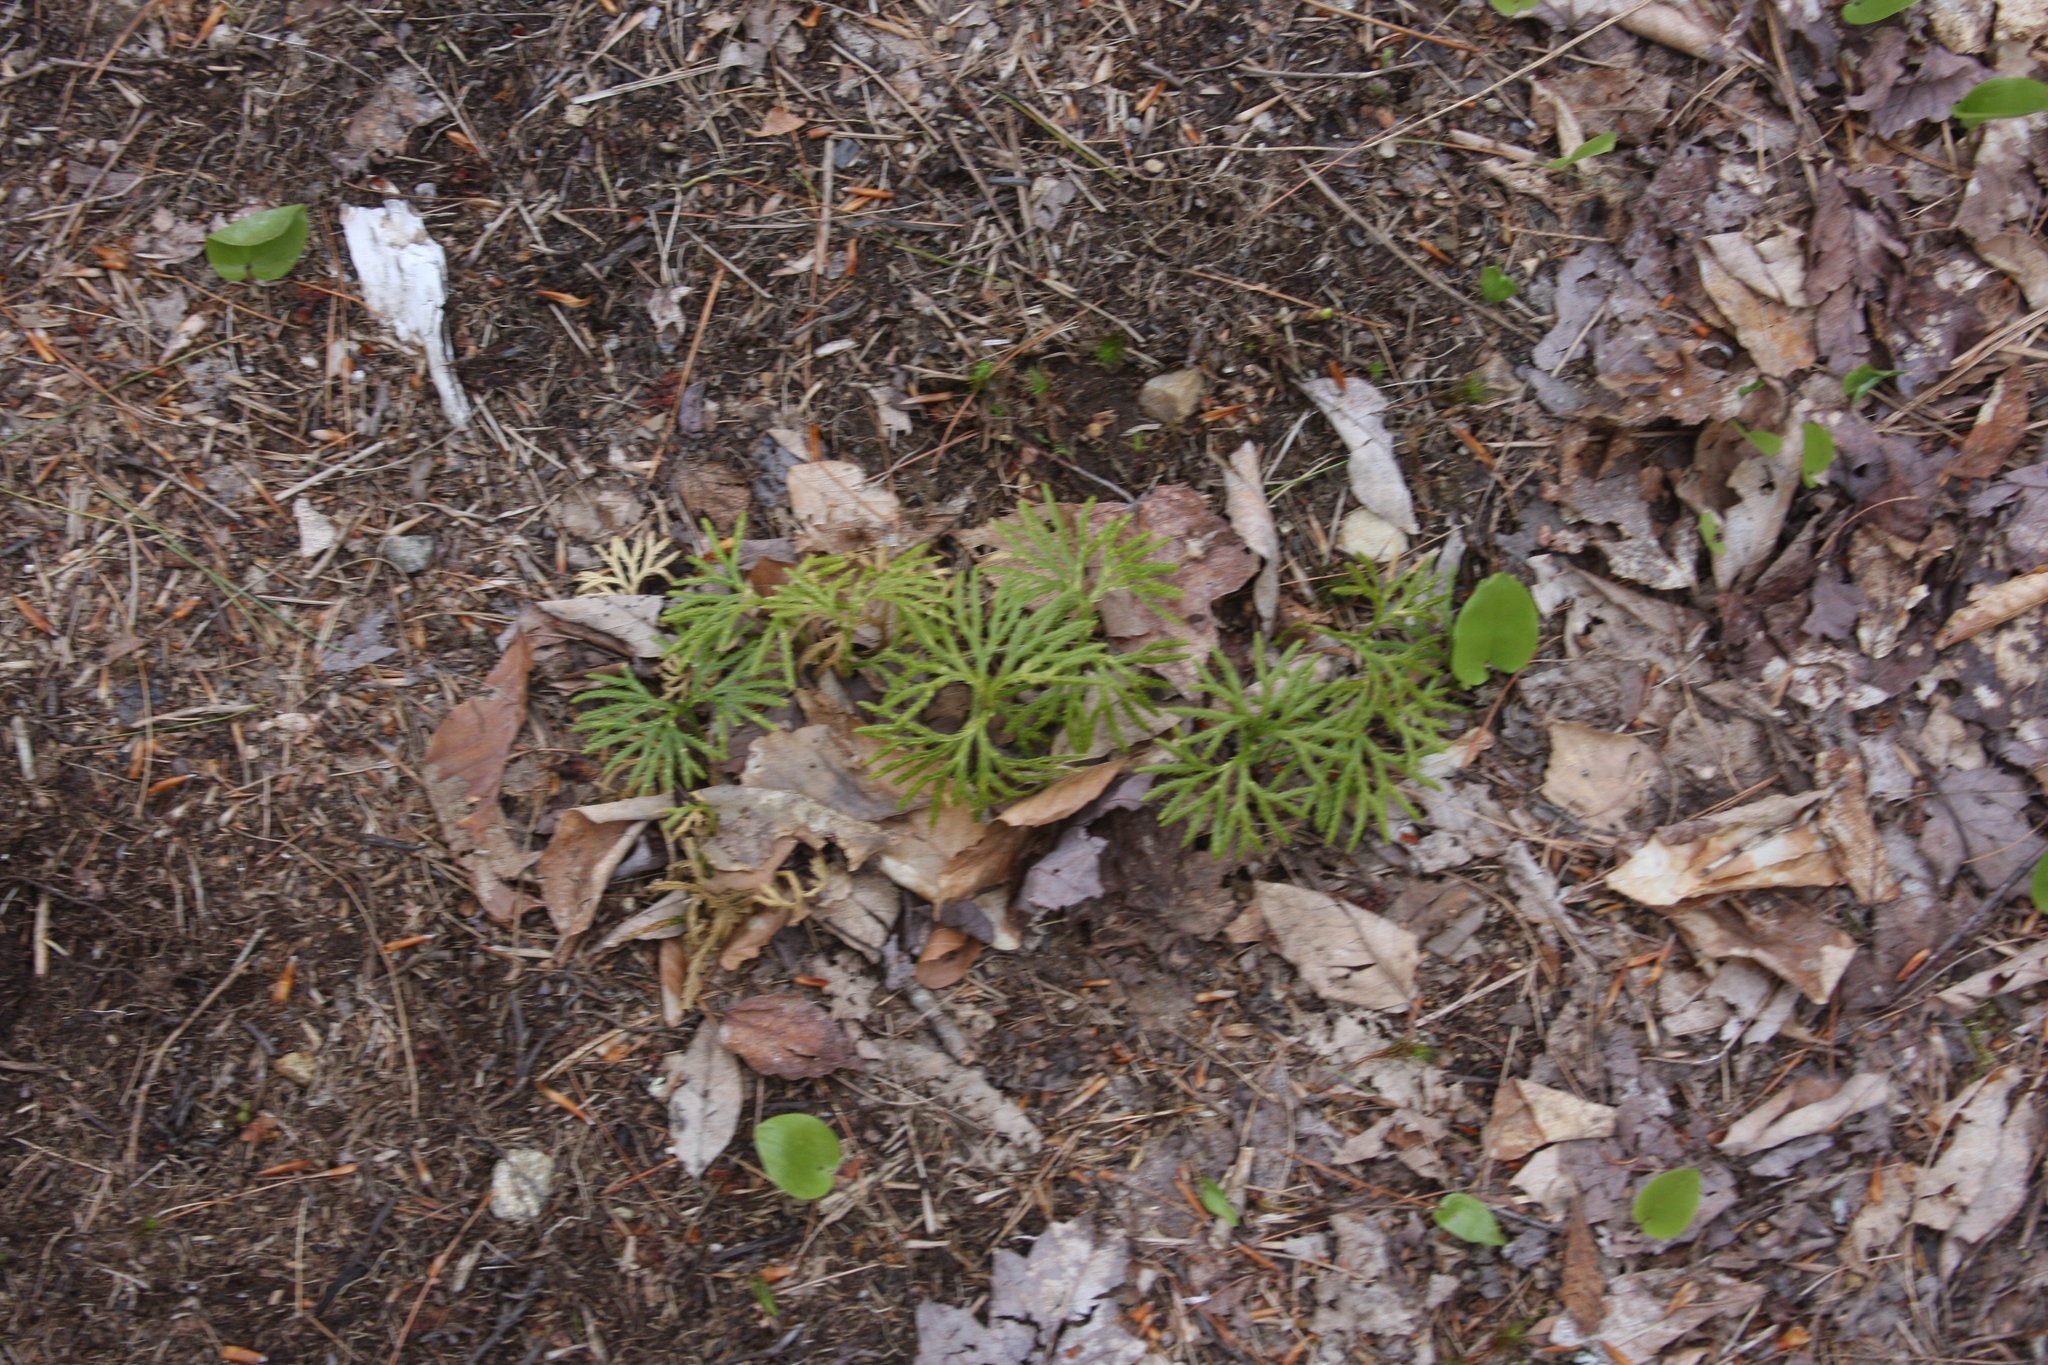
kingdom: Plantae
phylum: Tracheophyta
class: Liliopsida
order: Asparagales
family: Asparagaceae
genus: Maianthemum
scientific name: Maianthemum canadense
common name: False lily-of-the-valley
